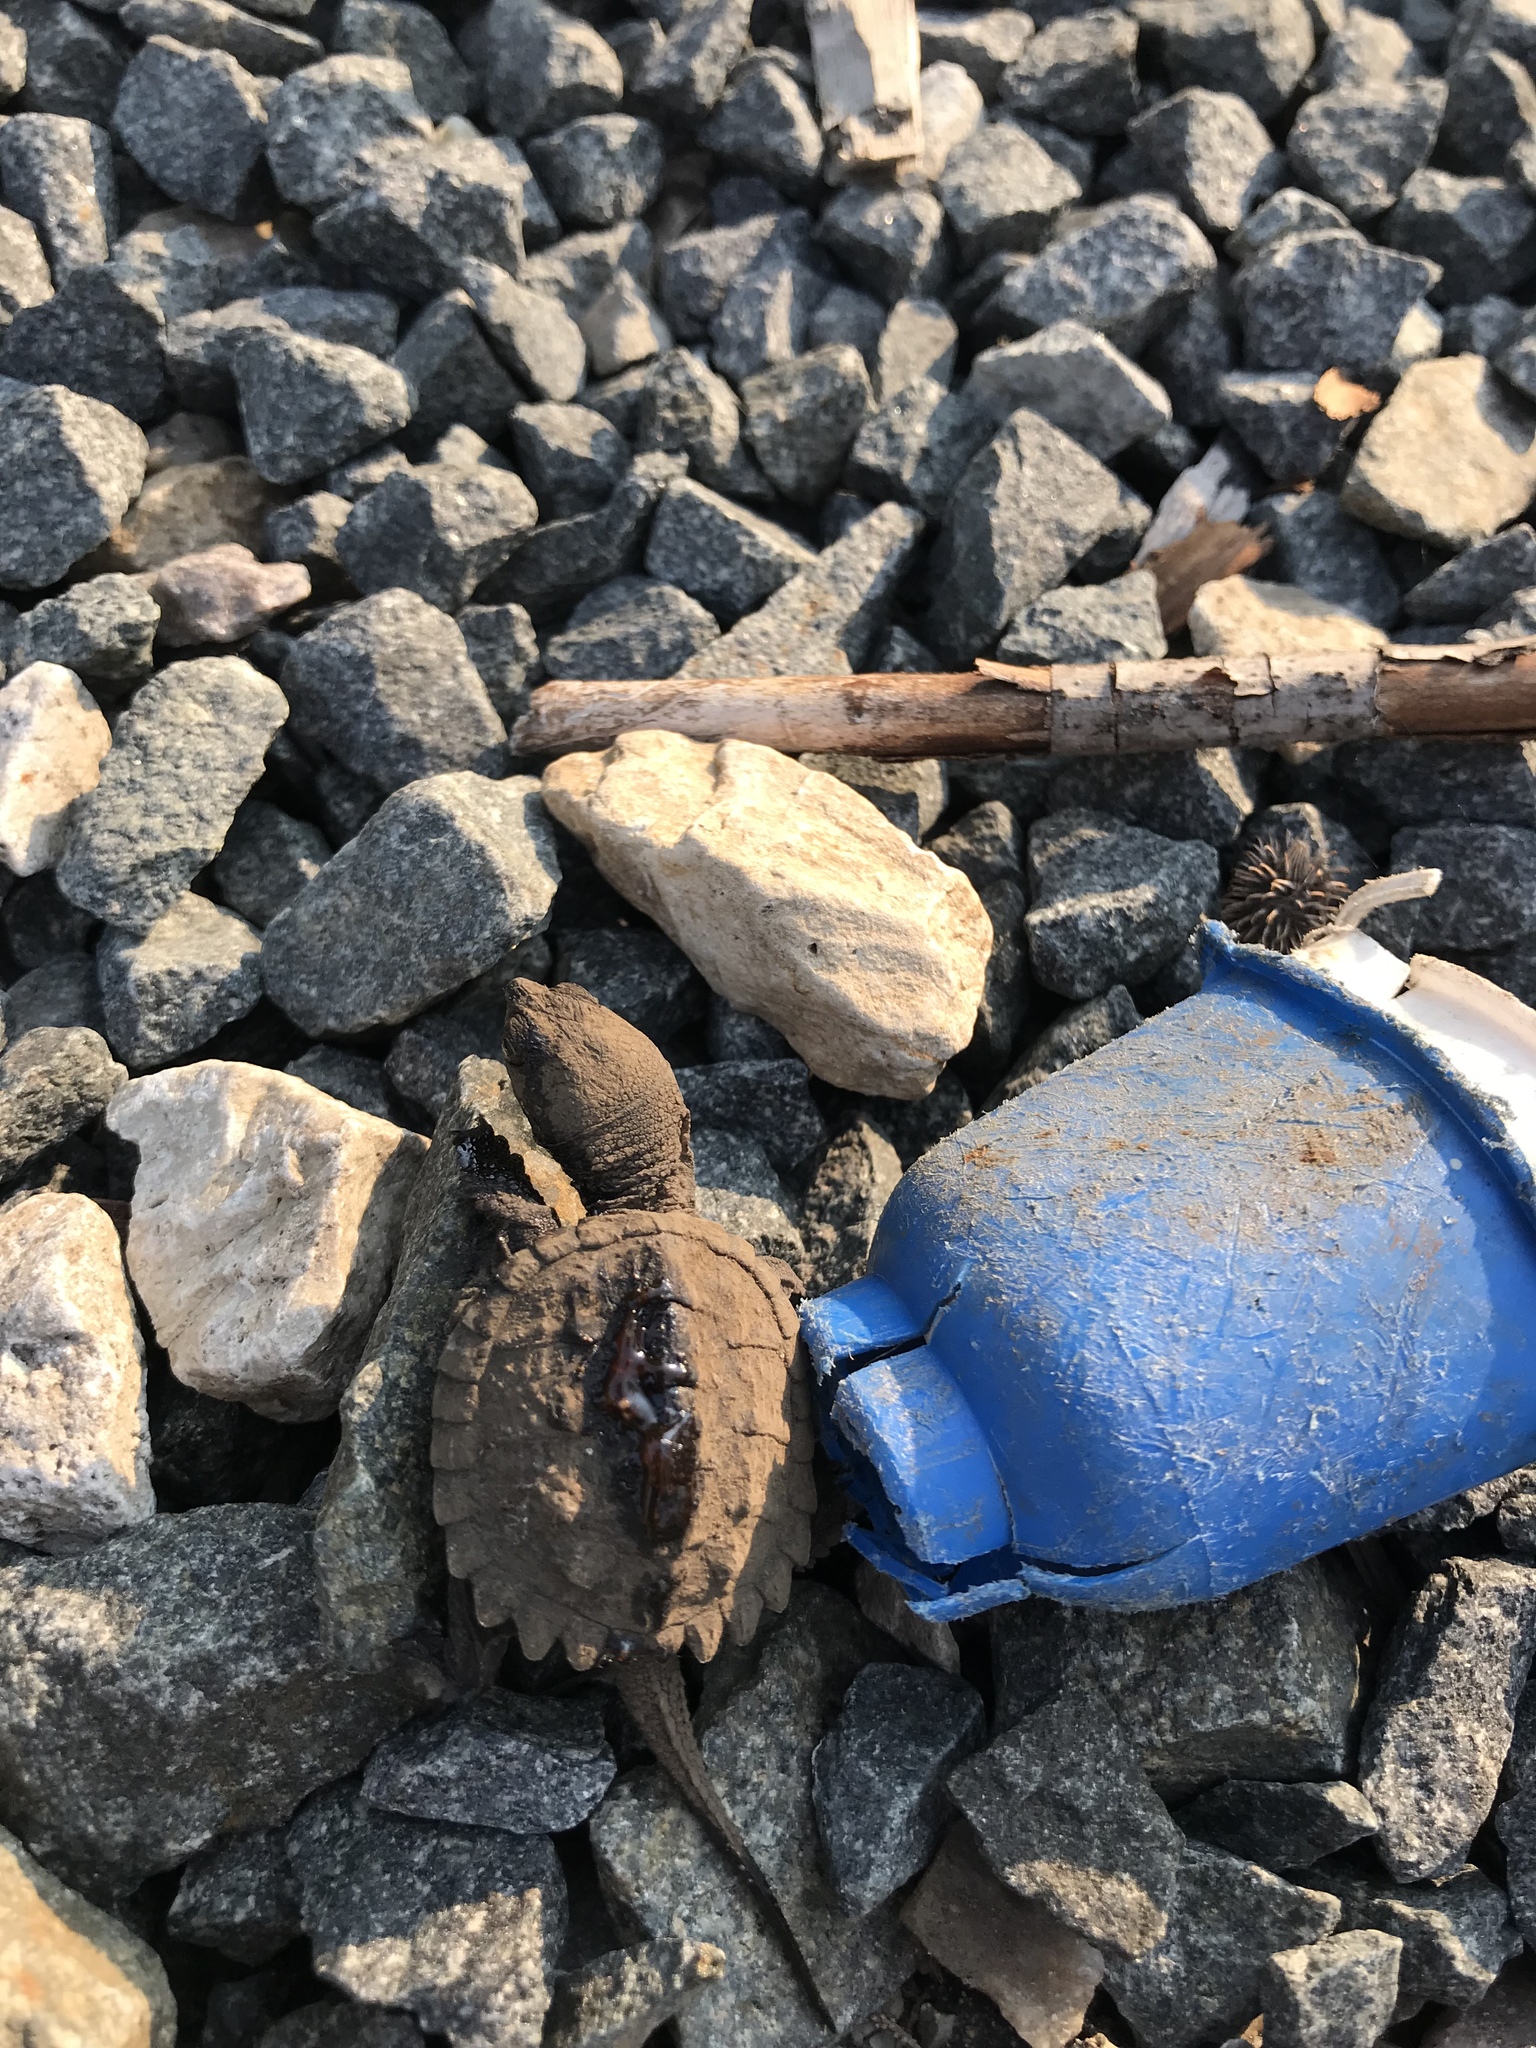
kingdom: Animalia
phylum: Chordata
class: Testudines
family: Chelydridae
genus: Chelydra
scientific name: Chelydra serpentina
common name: Common snapping turtle
